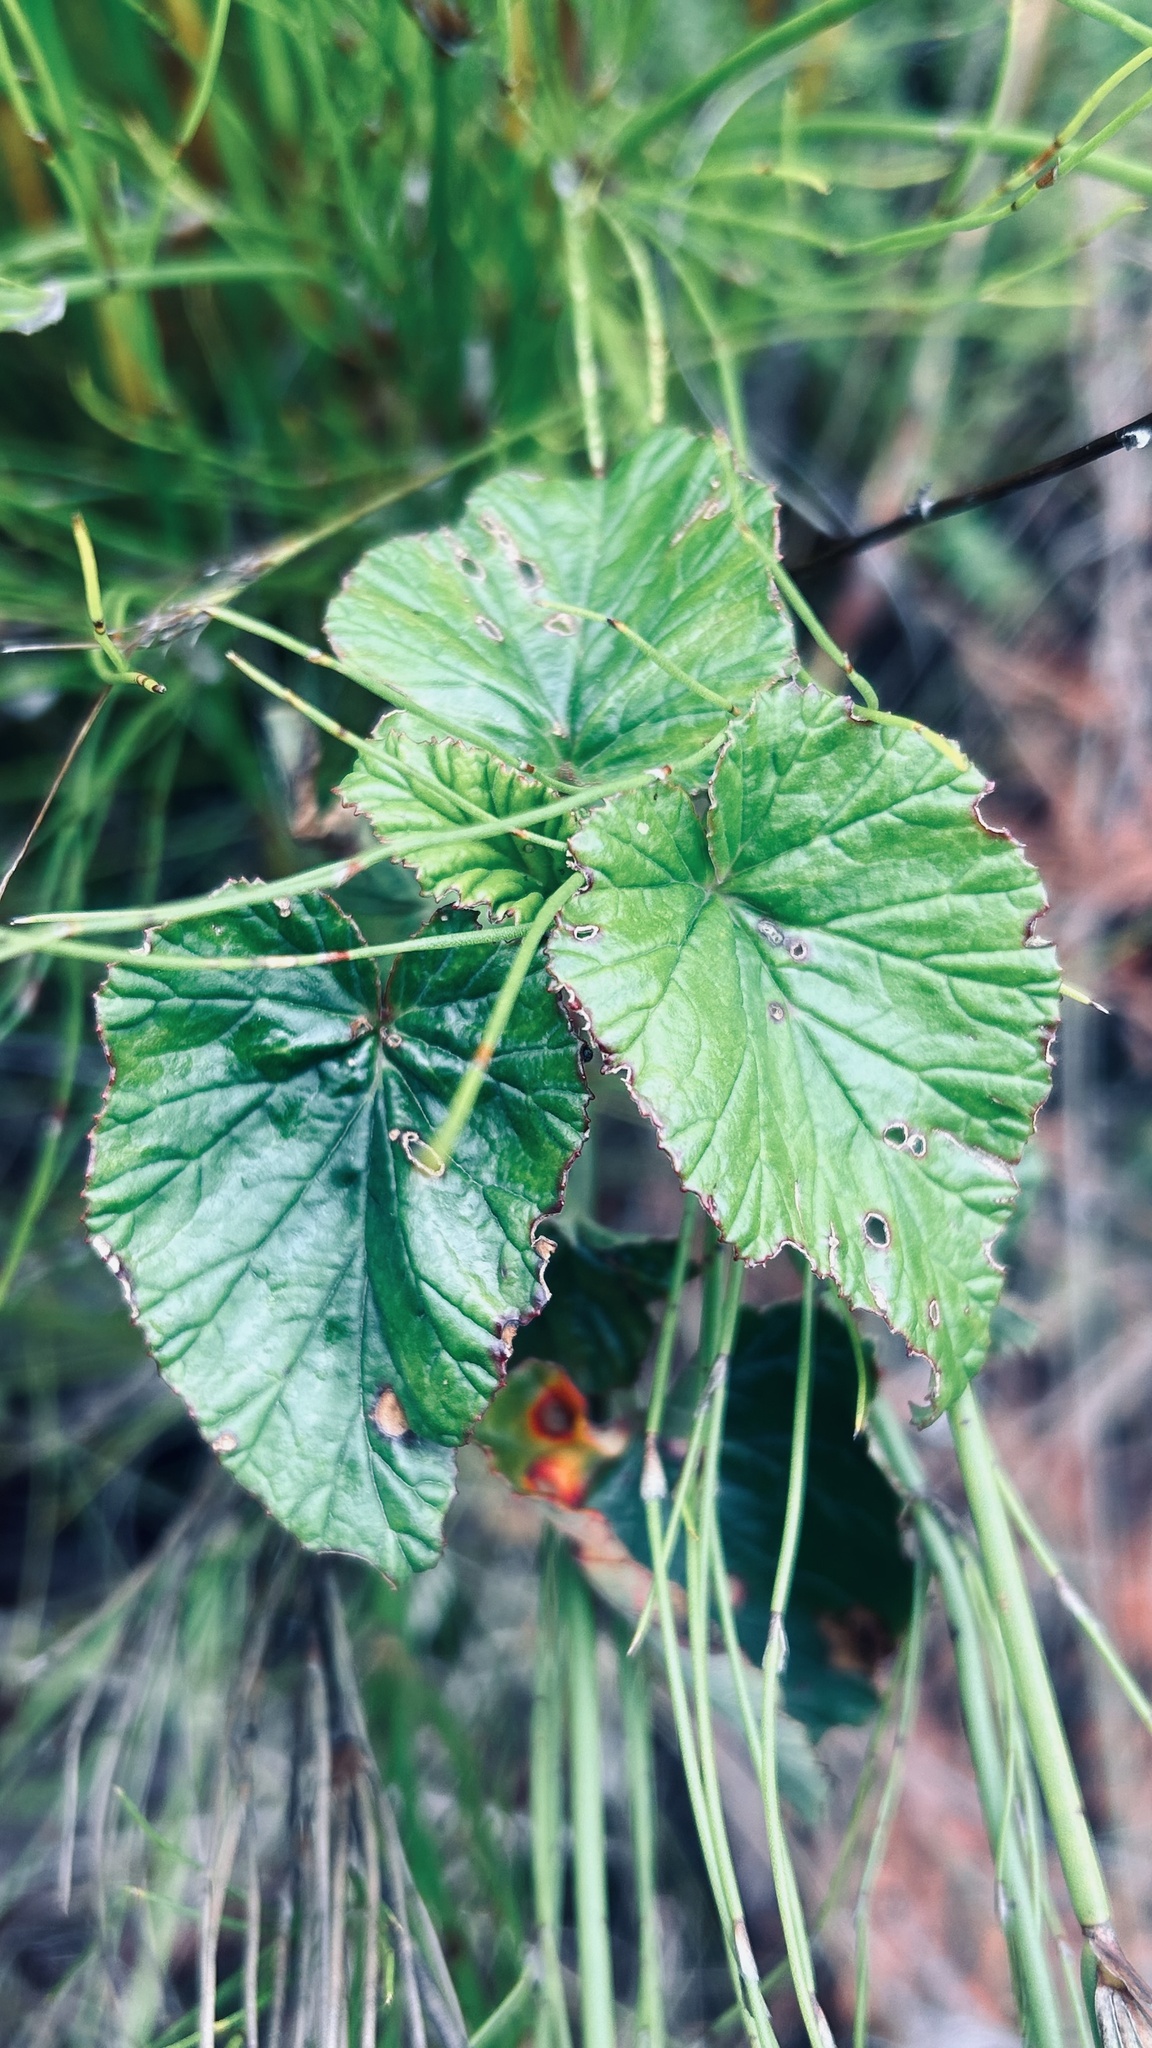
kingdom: Plantae
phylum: Tracheophyta
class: Magnoliopsida
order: Geraniales
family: Geraniaceae
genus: Pelargonium
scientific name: Pelargonium cordifolium
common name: Heart-leaf pelargonium
